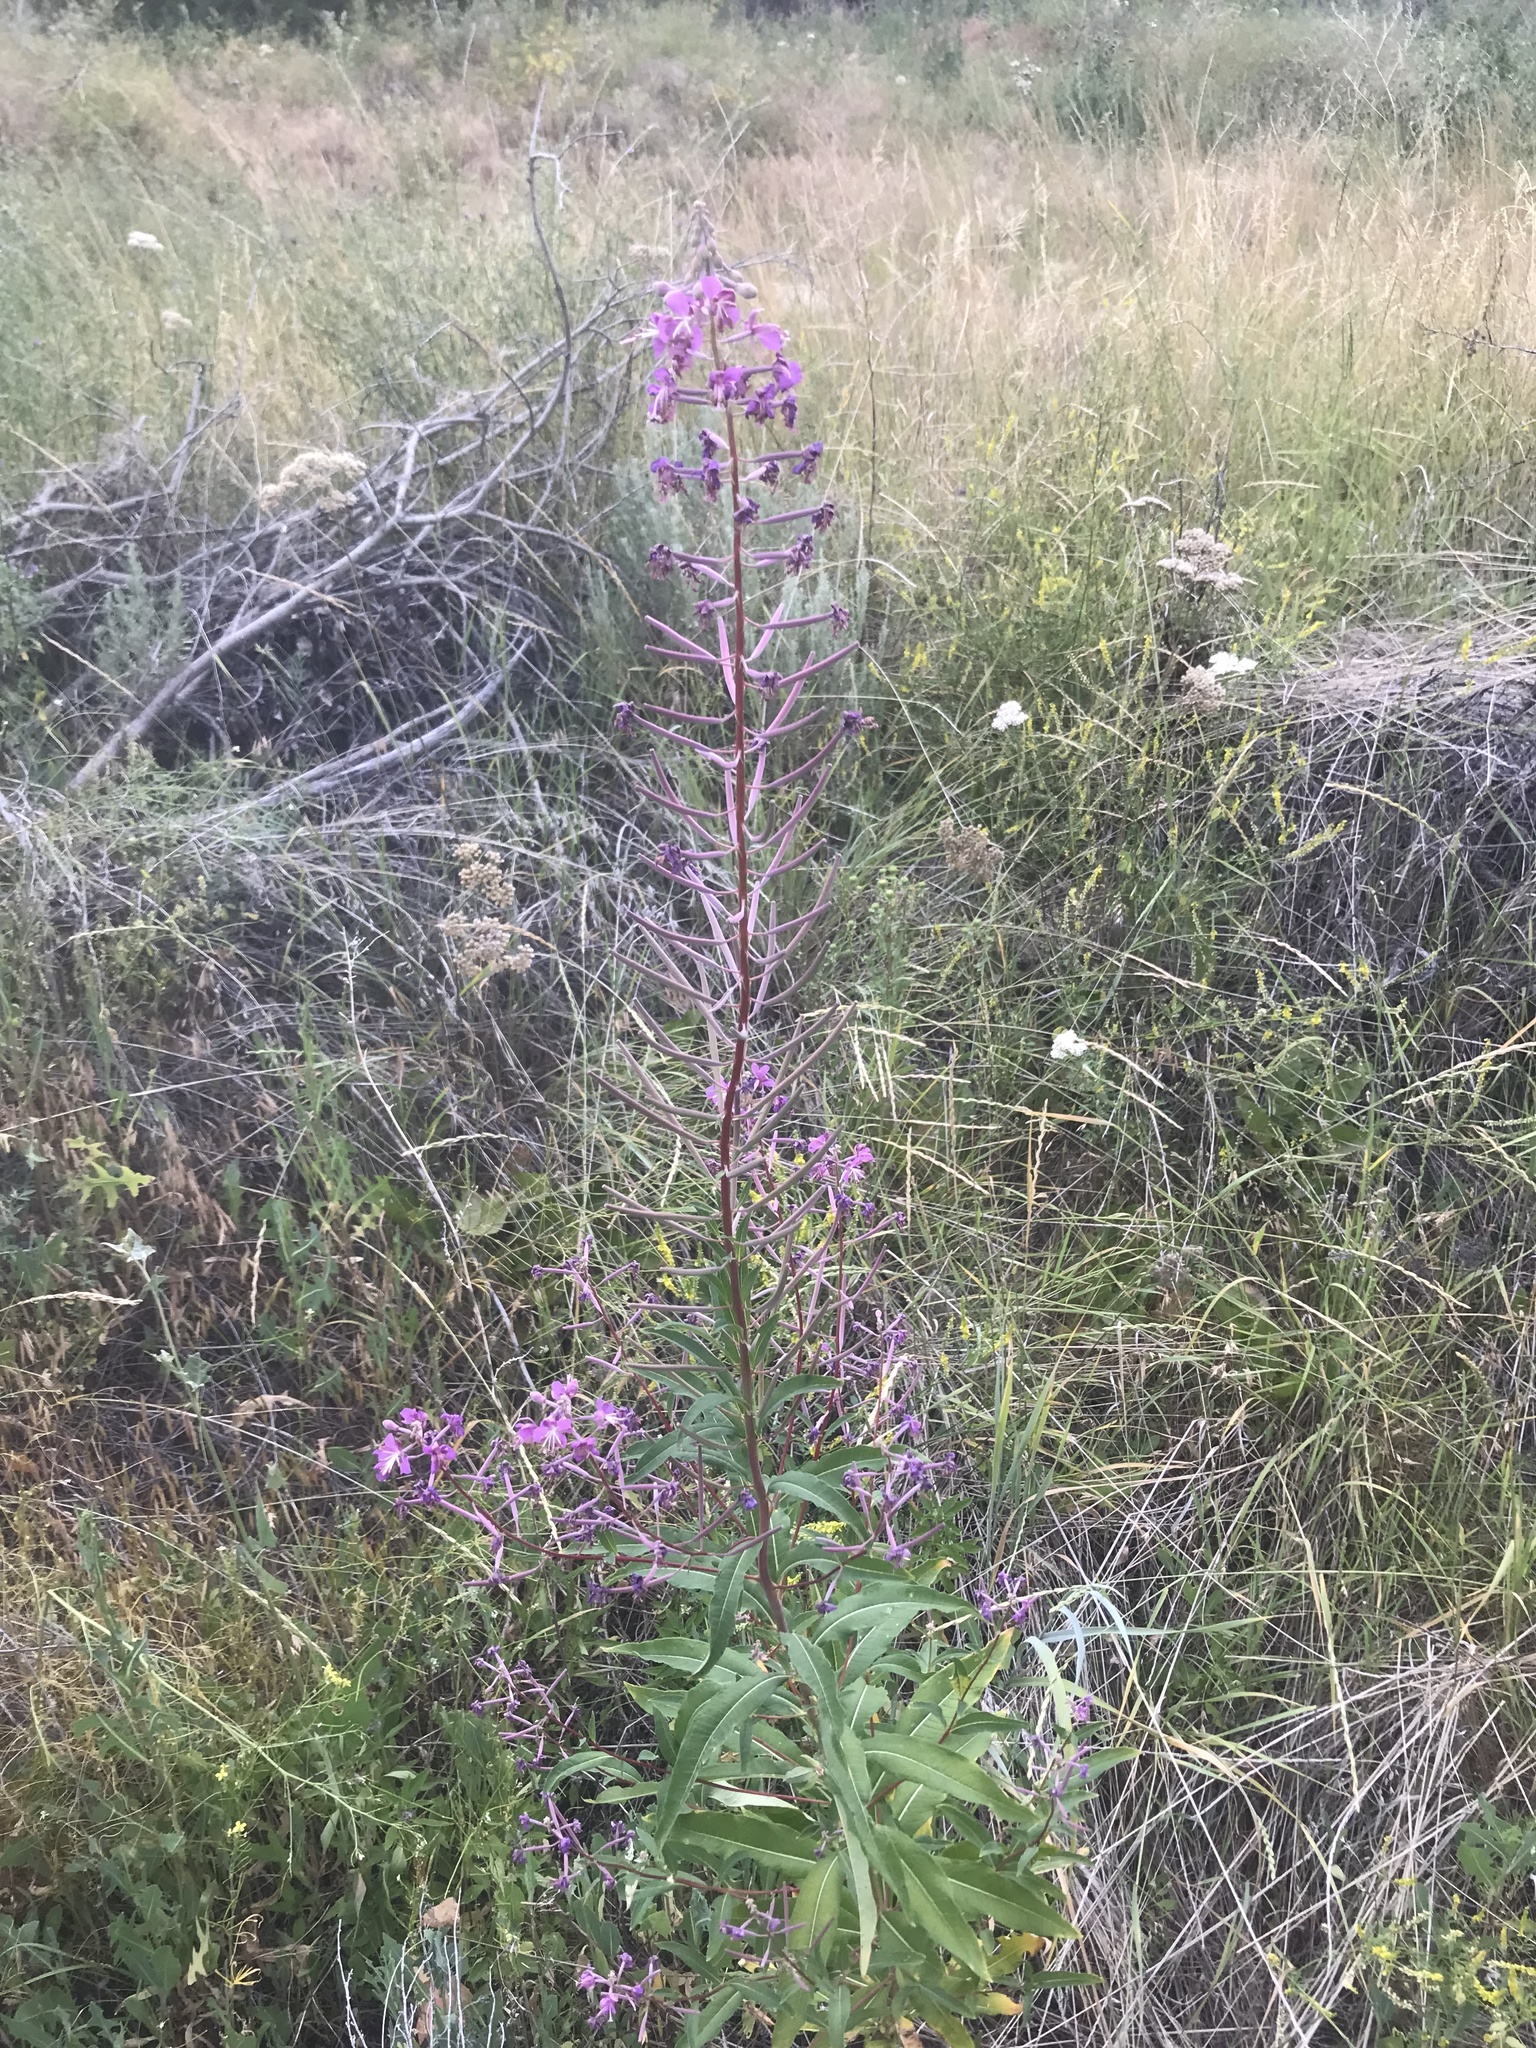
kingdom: Plantae
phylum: Tracheophyta
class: Magnoliopsida
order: Myrtales
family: Onagraceae
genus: Chamaenerion
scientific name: Chamaenerion angustifolium
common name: Fireweed
